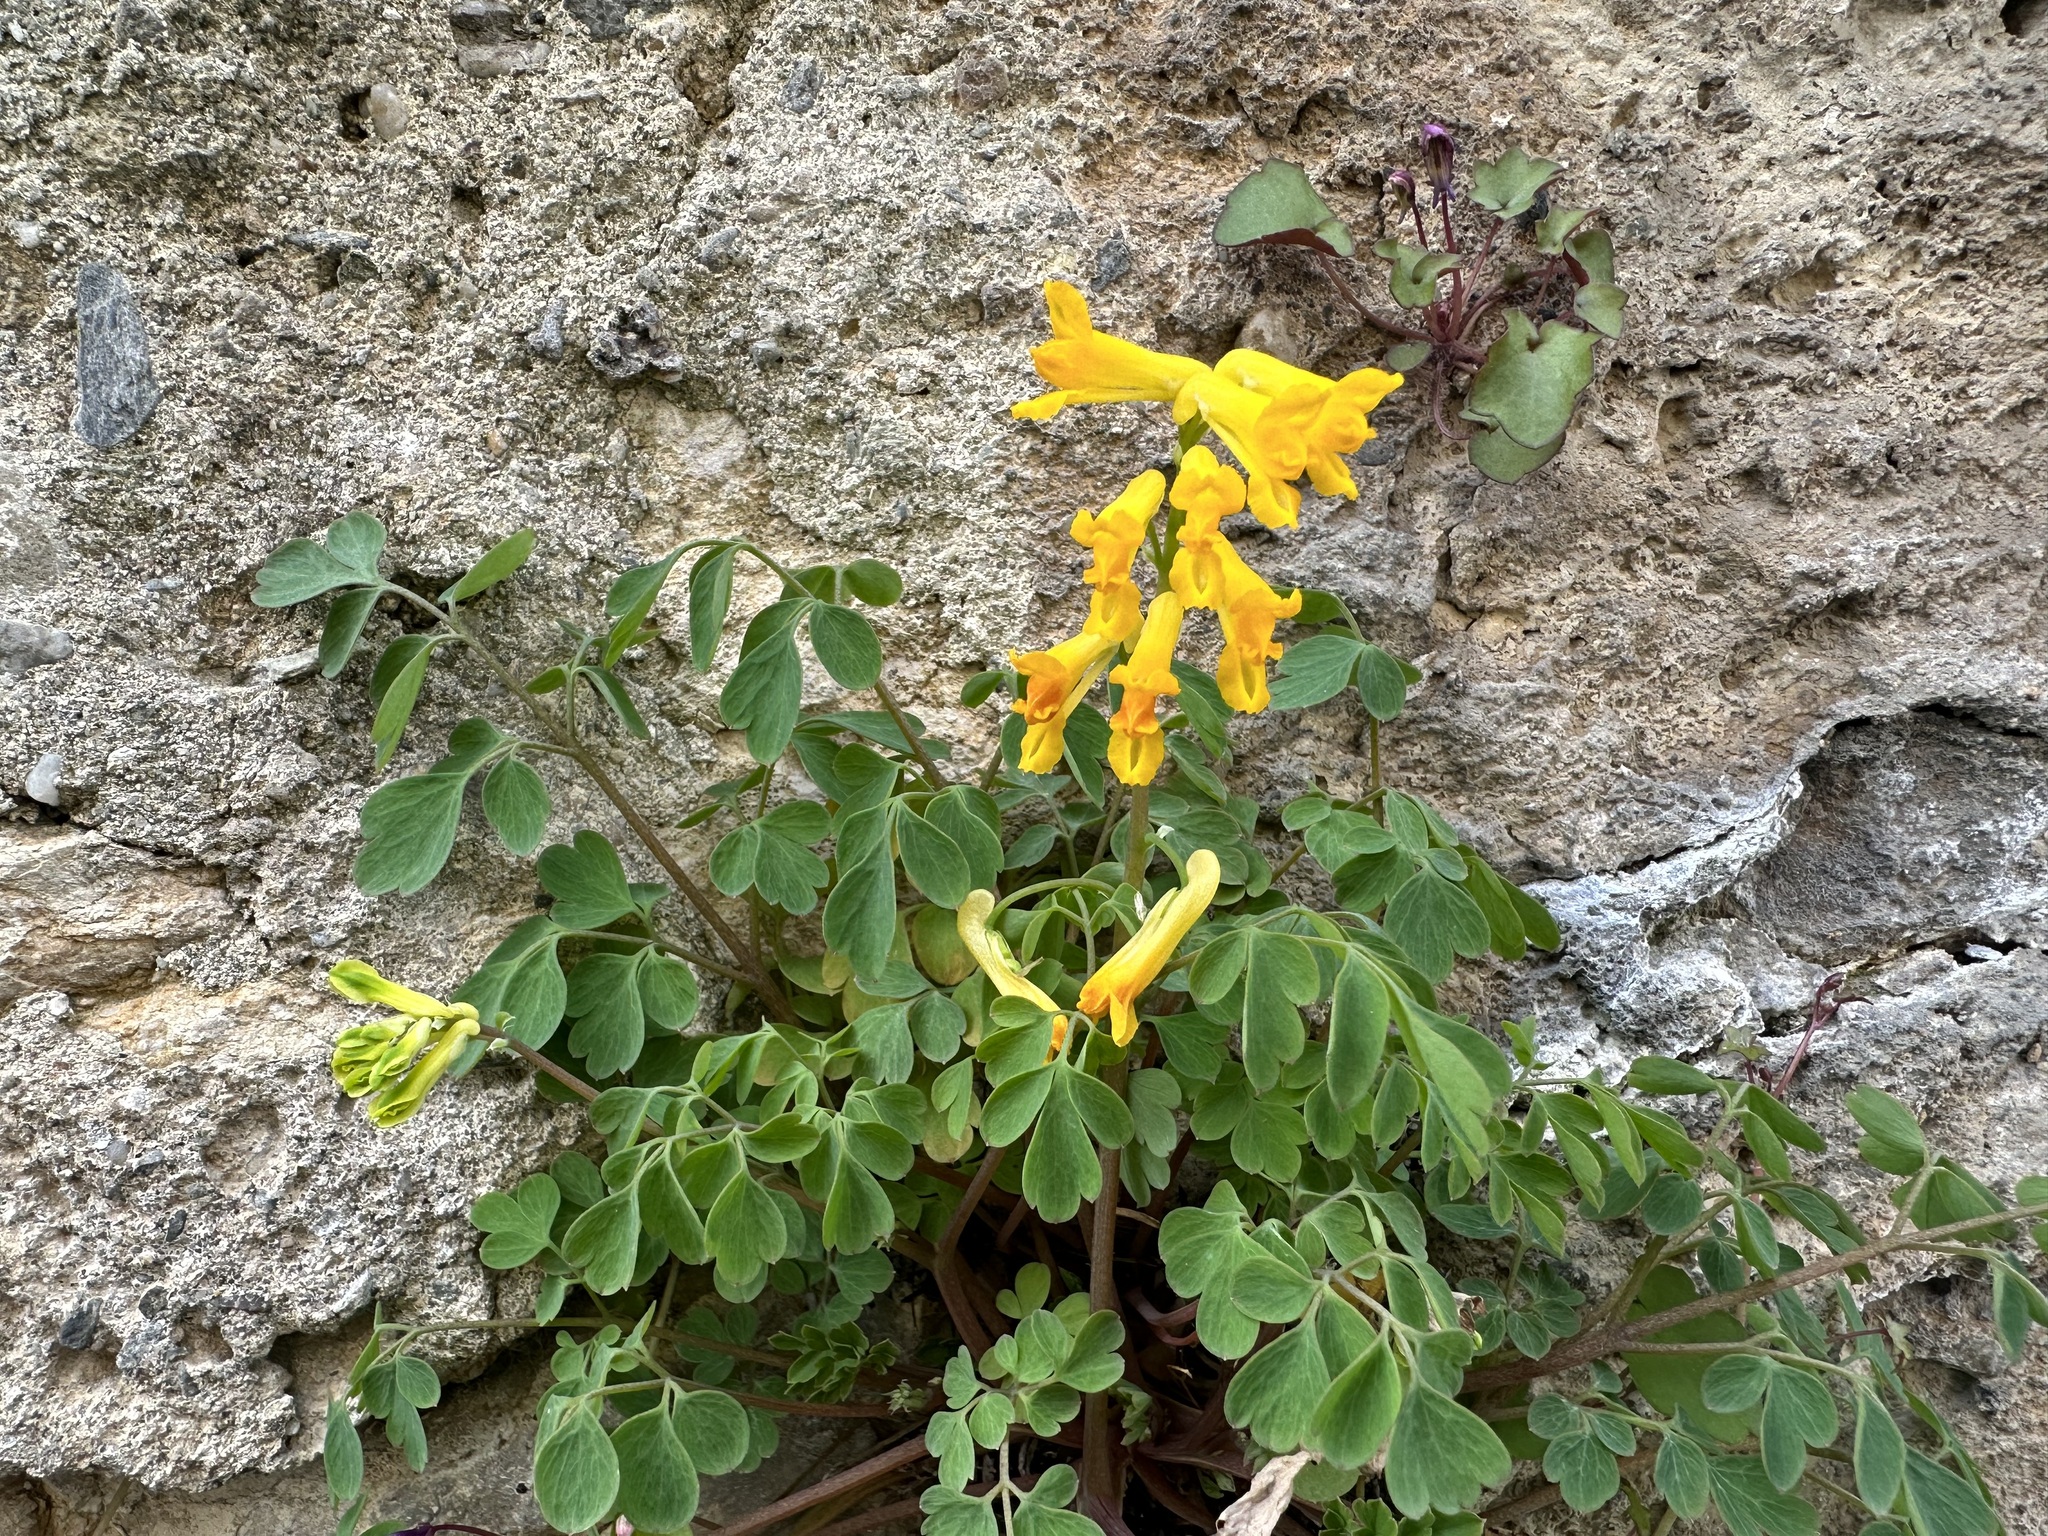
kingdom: Plantae
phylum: Tracheophyta
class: Magnoliopsida
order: Ranunculales
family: Papaveraceae
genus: Pseudofumaria
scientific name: Pseudofumaria lutea
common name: Yellow corydalis
